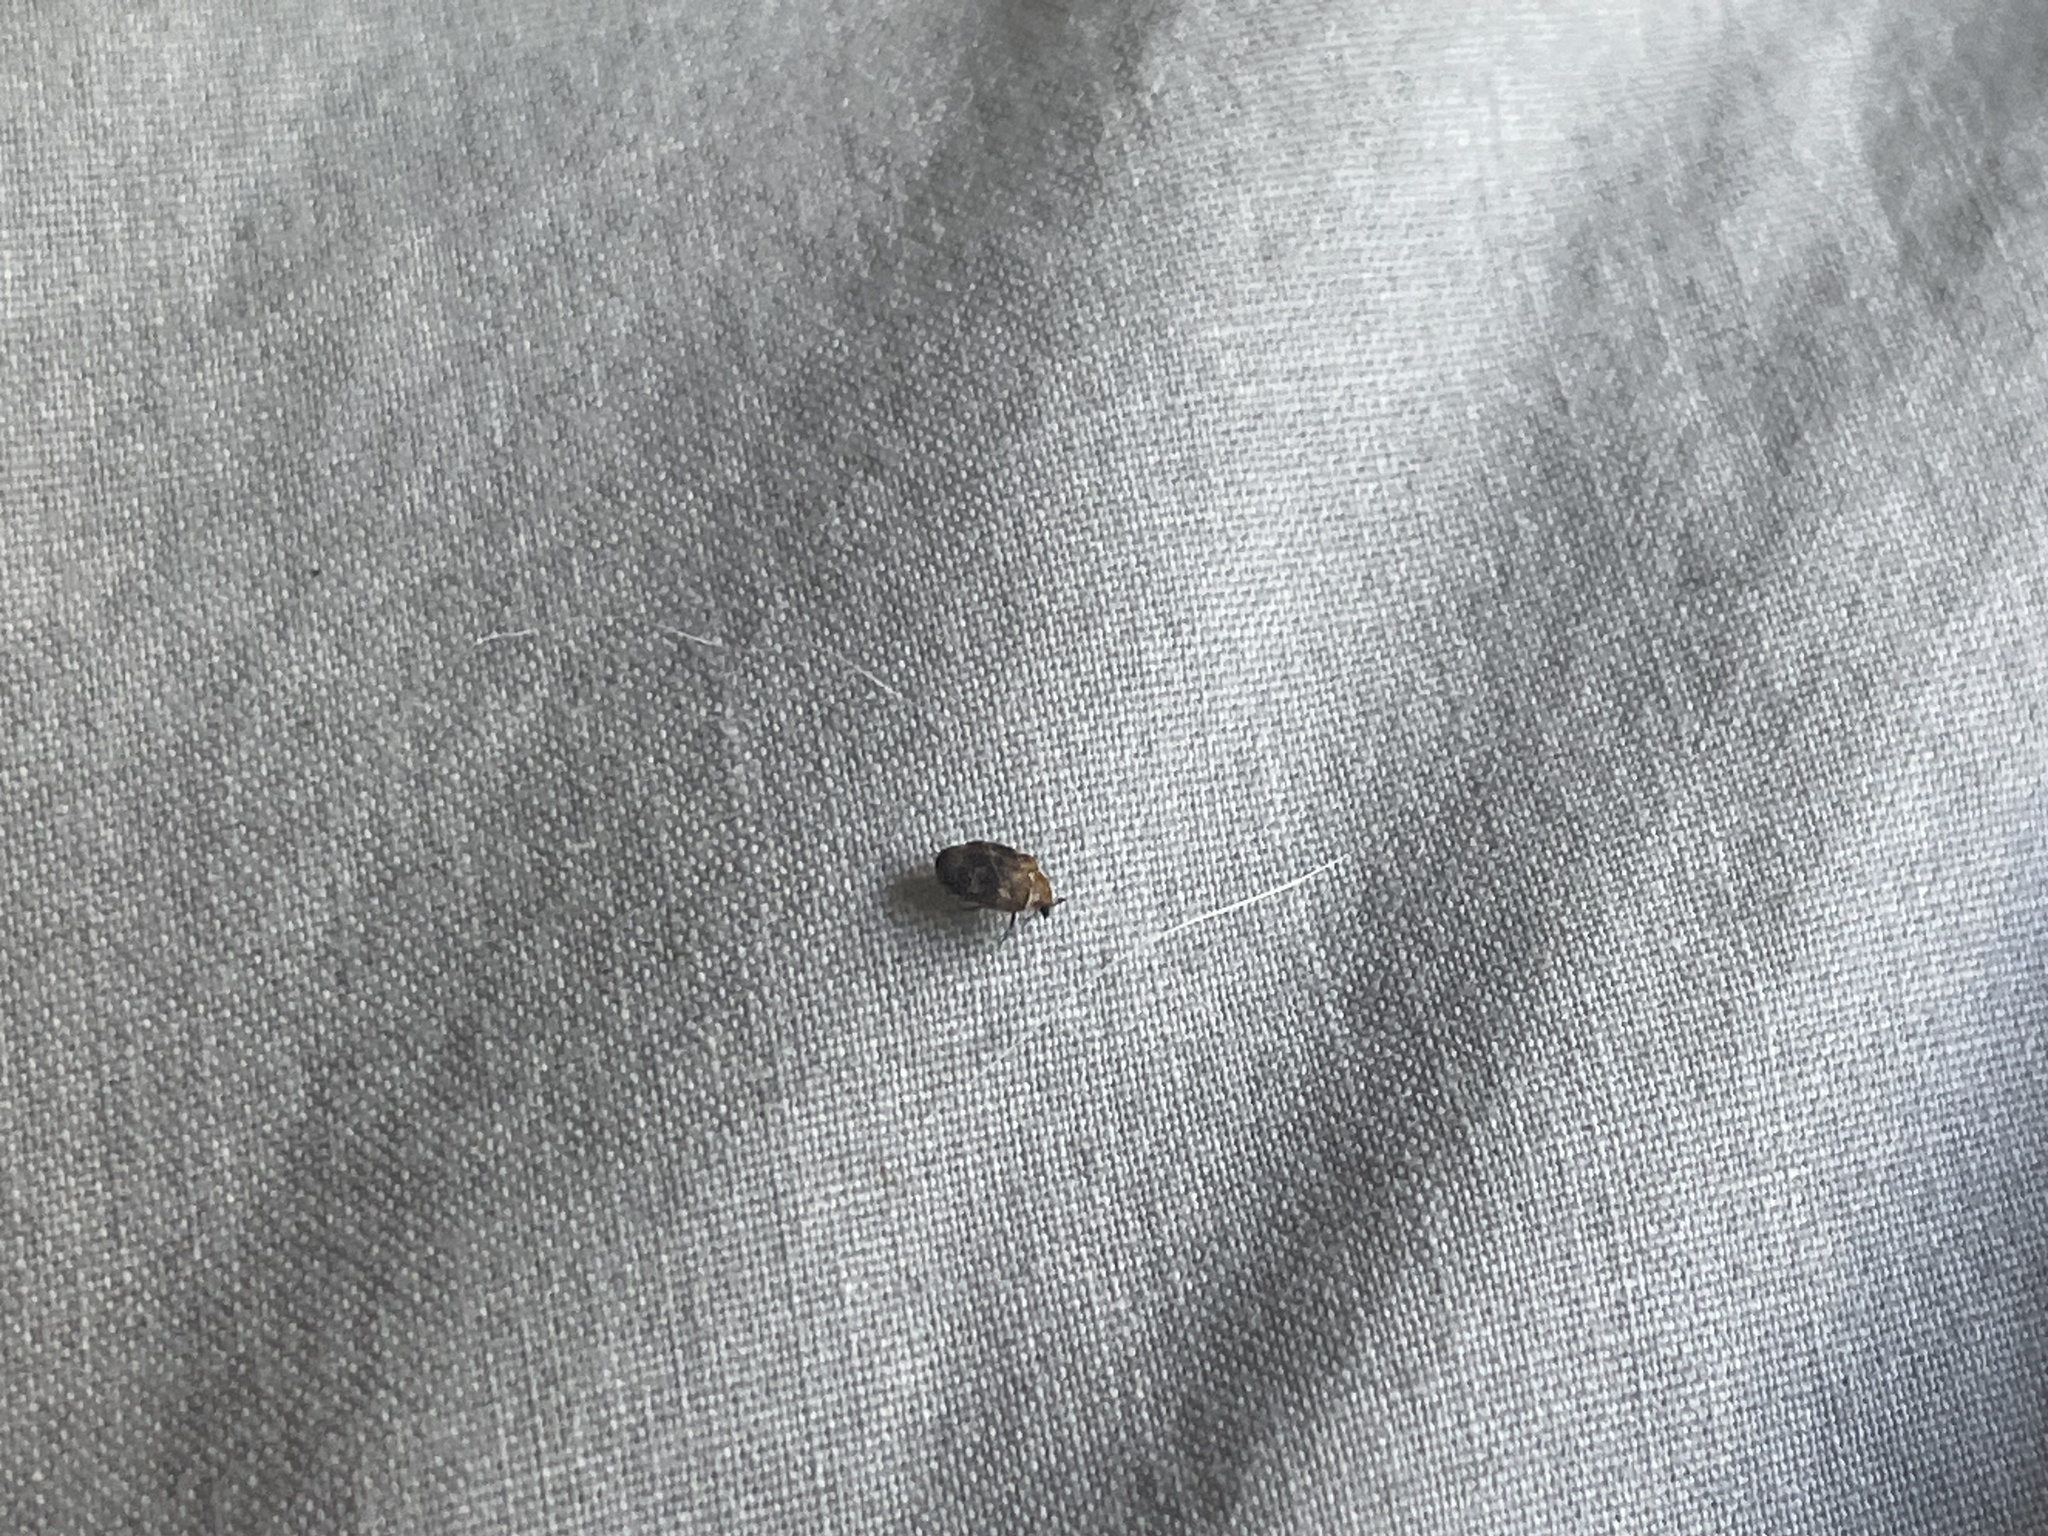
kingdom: Animalia
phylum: Arthropoda
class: Insecta
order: Coleoptera
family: Dermestidae
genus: Anthrenus
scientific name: Anthrenus verbasci
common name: Varied carpet beetle
